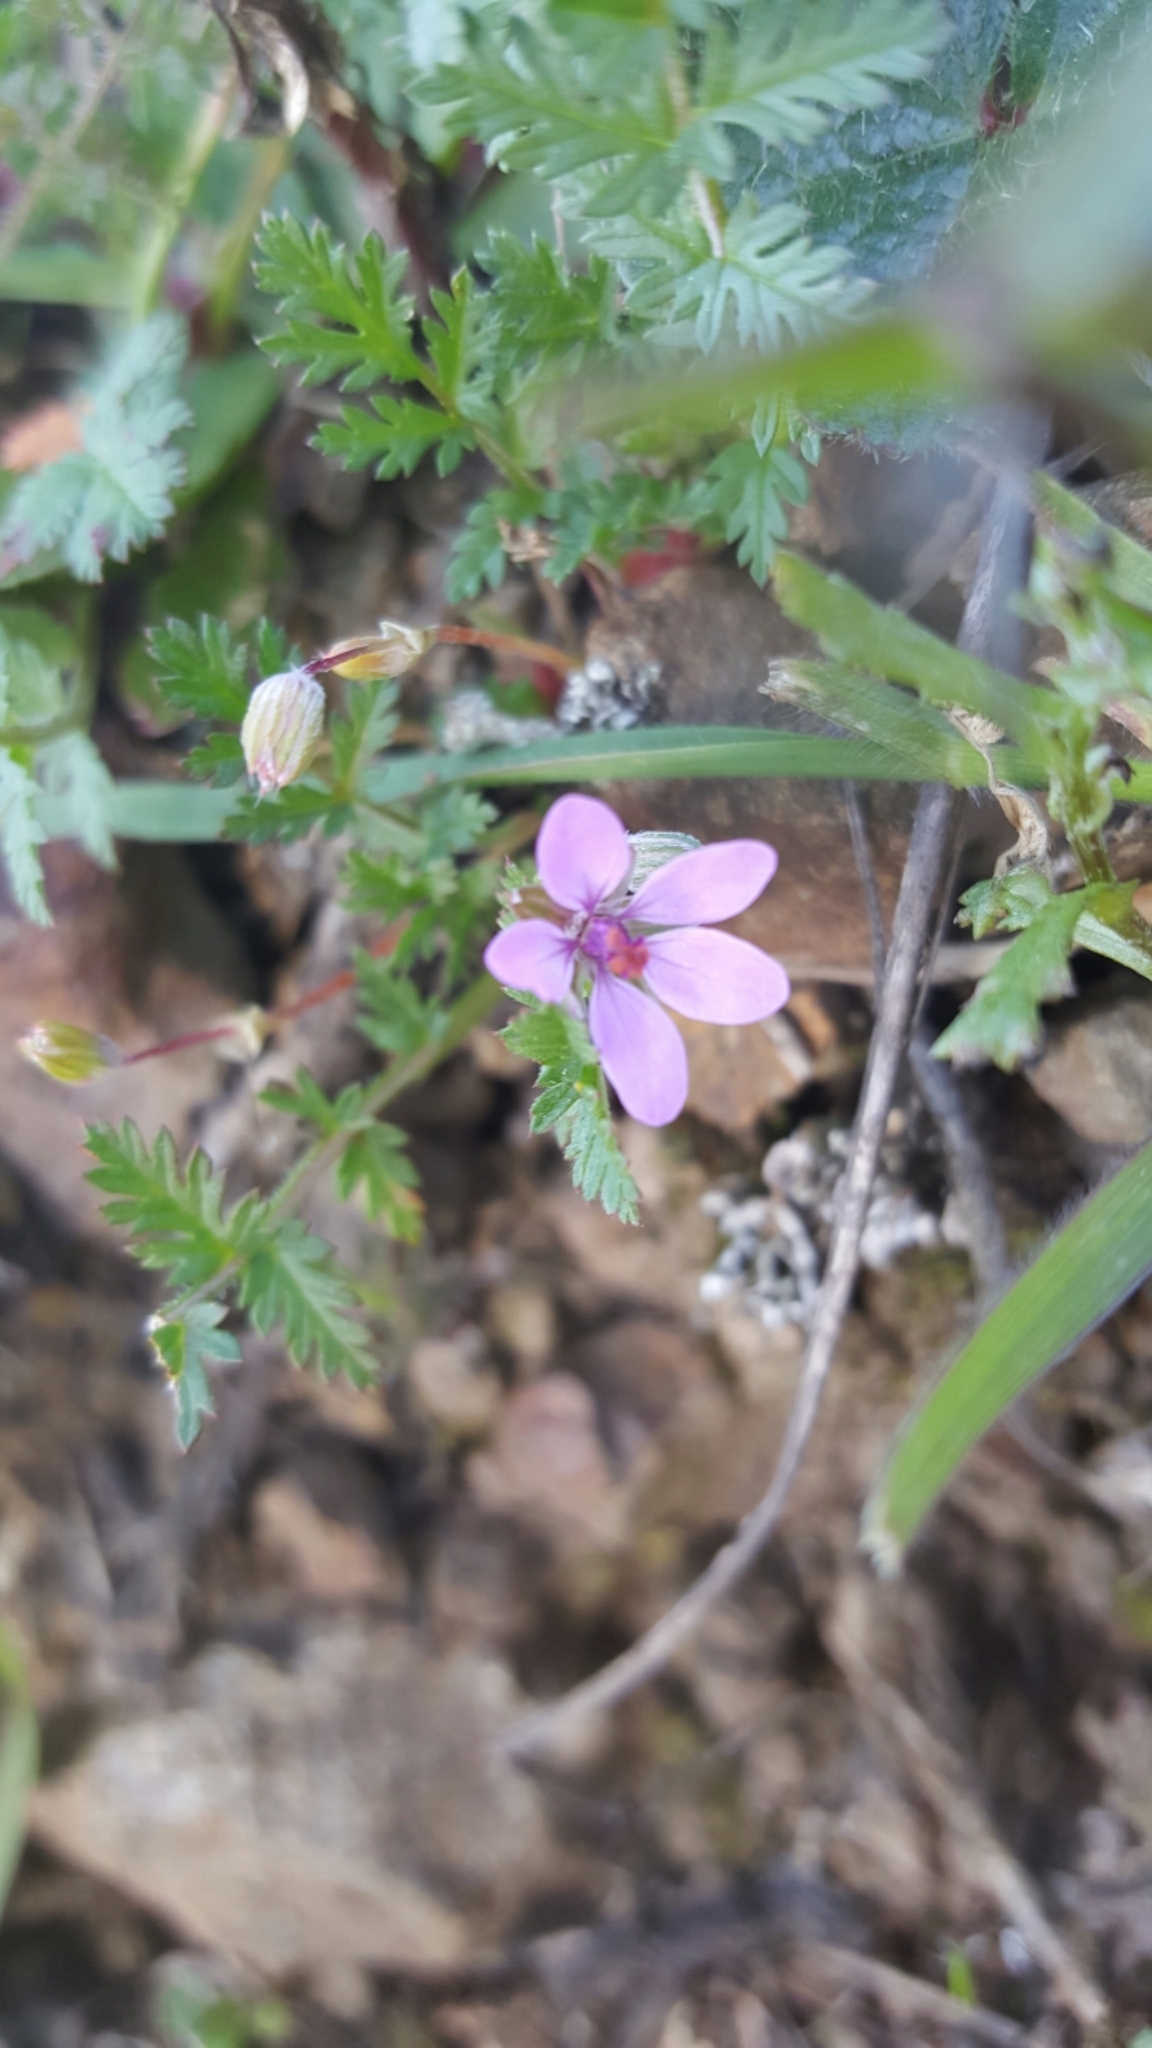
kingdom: Plantae
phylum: Tracheophyta
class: Magnoliopsida
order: Geraniales
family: Geraniaceae
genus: Erodium
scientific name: Erodium cicutarium
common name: Common stork's-bill
